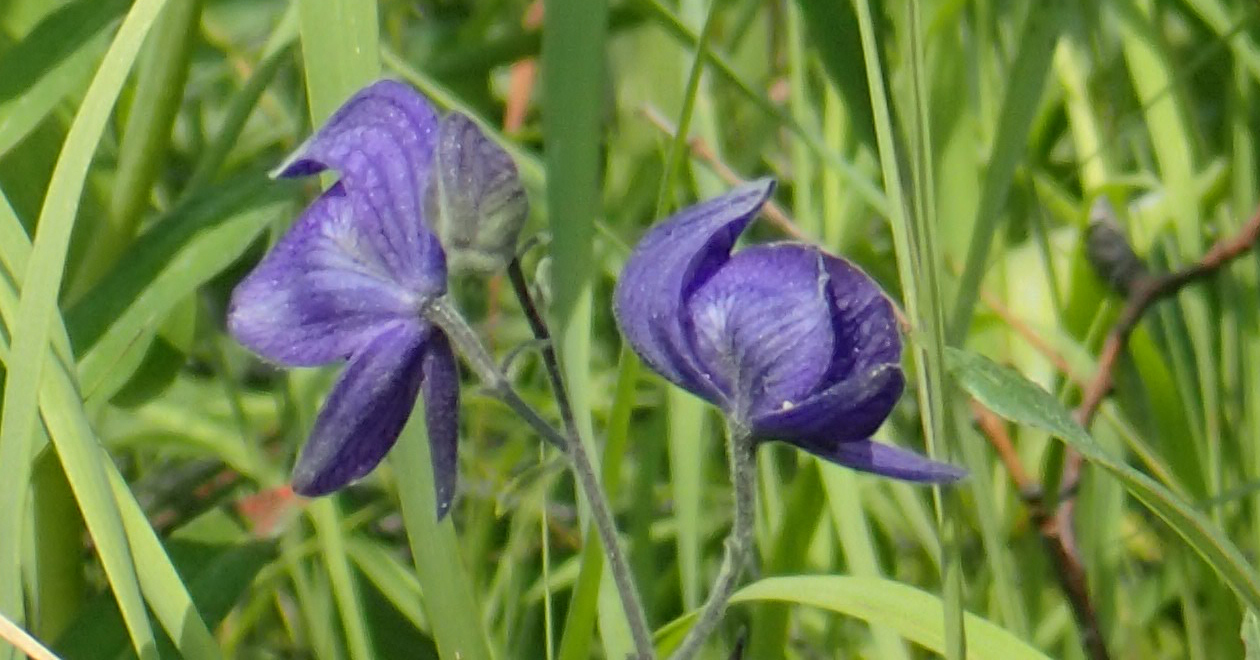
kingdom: Plantae
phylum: Tracheophyta
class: Magnoliopsida
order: Ranunculales
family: Ranunculaceae
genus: Aconitum
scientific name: Aconitum delphiniifolium
